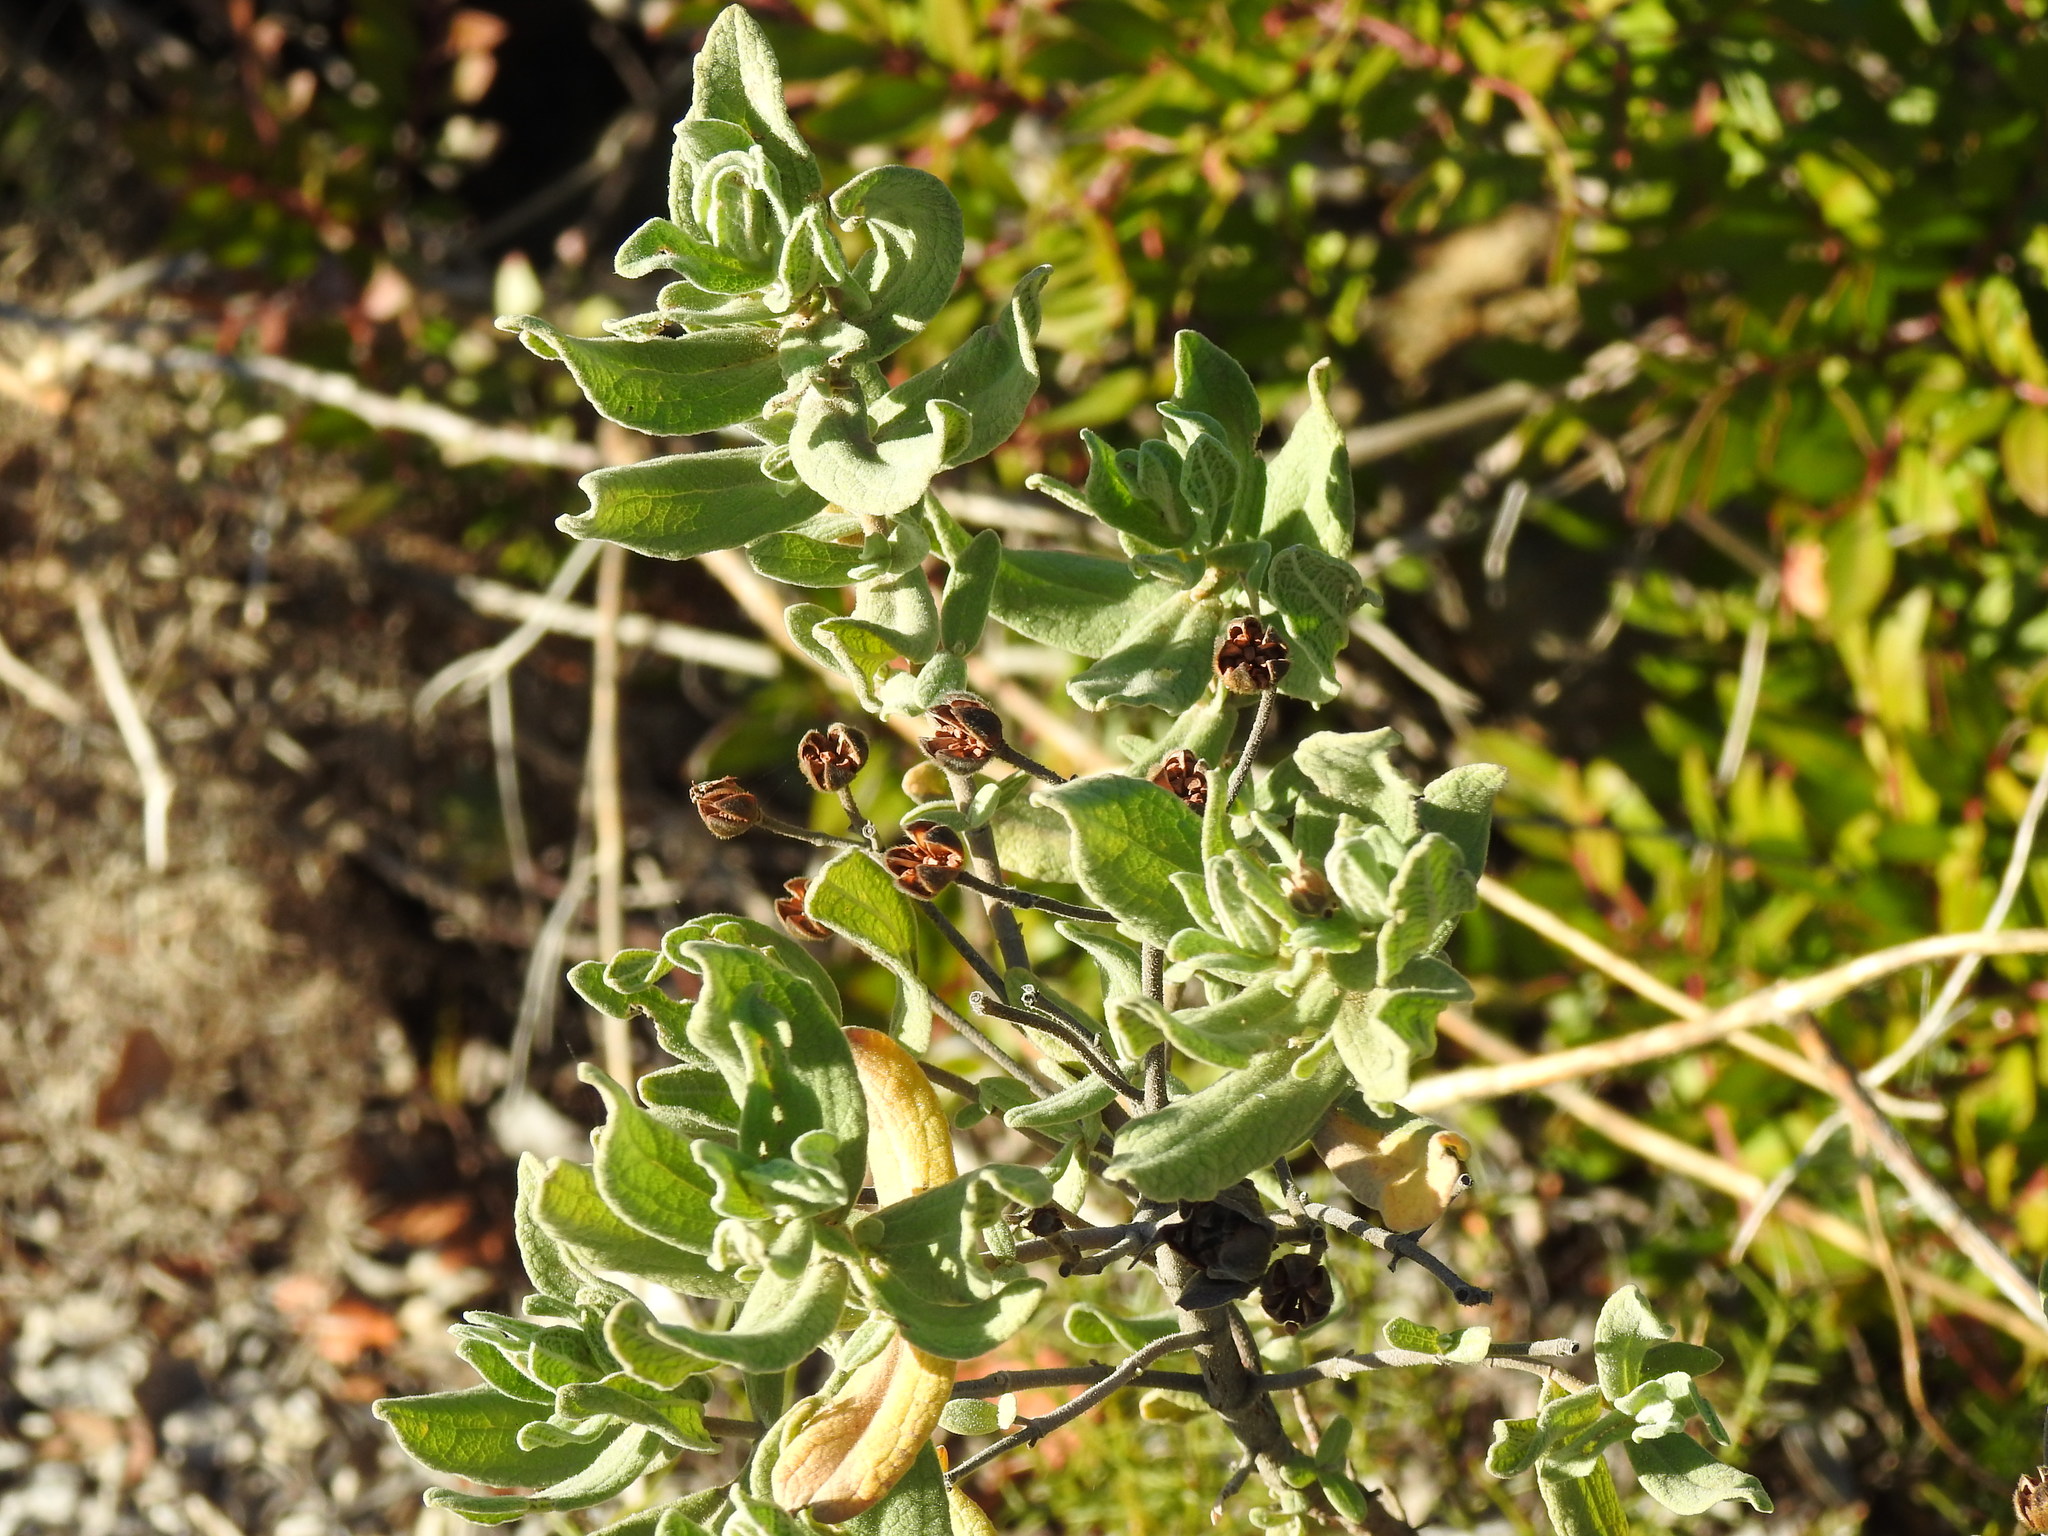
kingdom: Plantae
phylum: Tracheophyta
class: Magnoliopsida
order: Malvales
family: Cistaceae
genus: Cistus
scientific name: Cistus albidus
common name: White-leaf rock-rose
